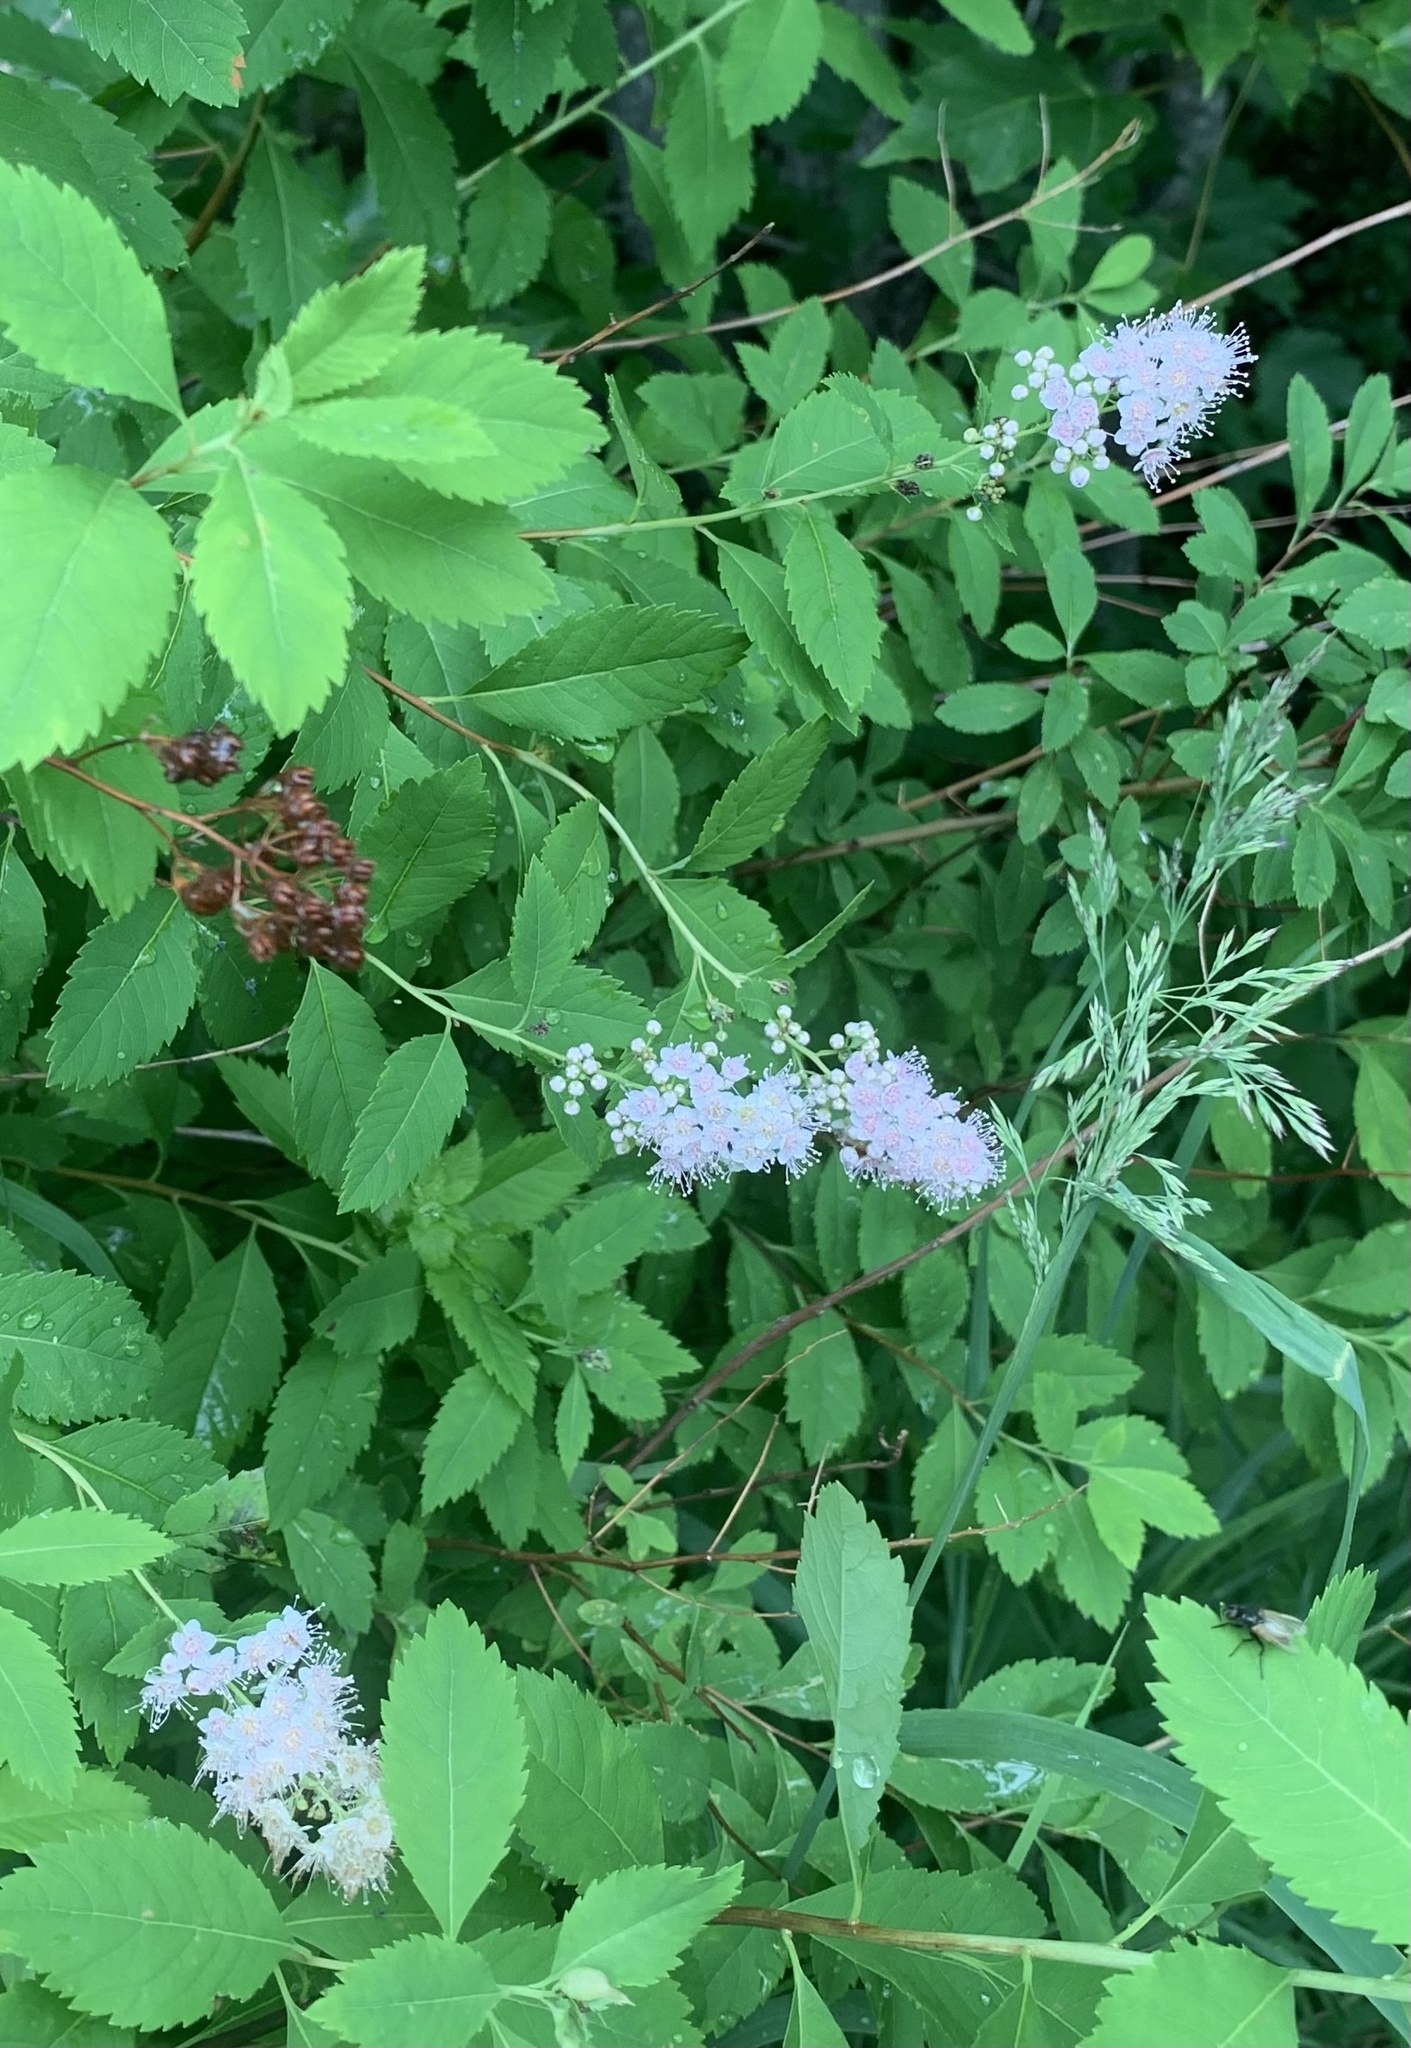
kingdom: Plantae
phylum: Tracheophyta
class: Magnoliopsida
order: Rosales
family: Rosaceae
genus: Spiraea
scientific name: Spiraea alba
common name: Pale bridewort
